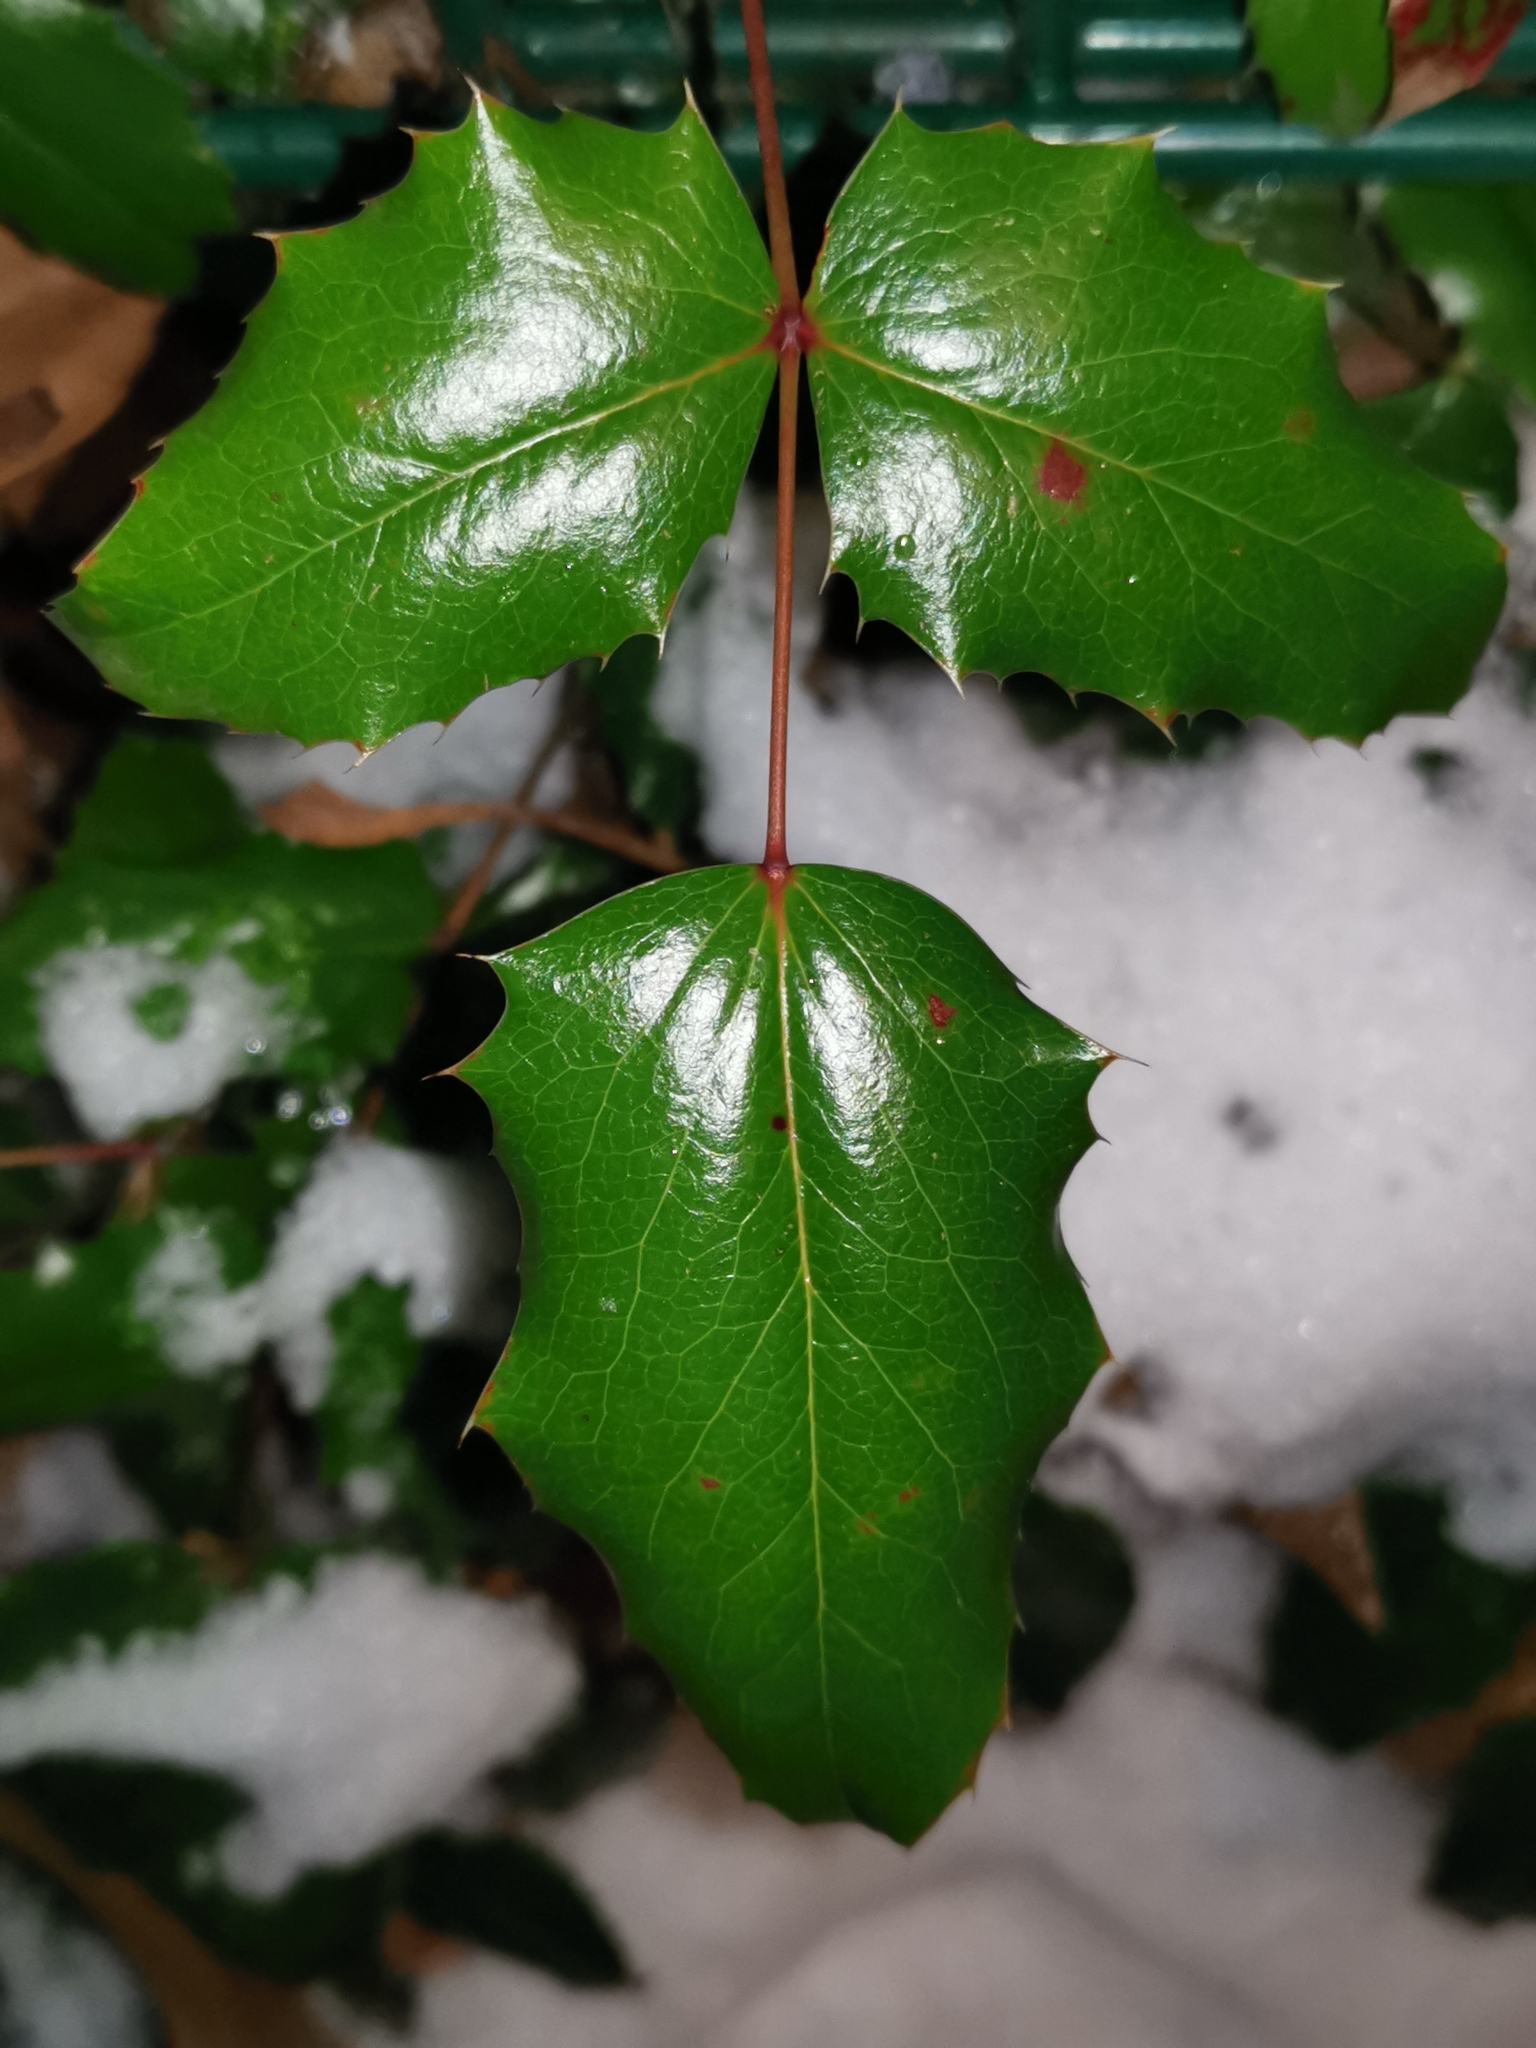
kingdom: Plantae
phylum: Tracheophyta
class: Magnoliopsida
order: Ranunculales
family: Berberidaceae
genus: Mahonia
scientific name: Mahonia aquifolium
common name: Oregon-grape
